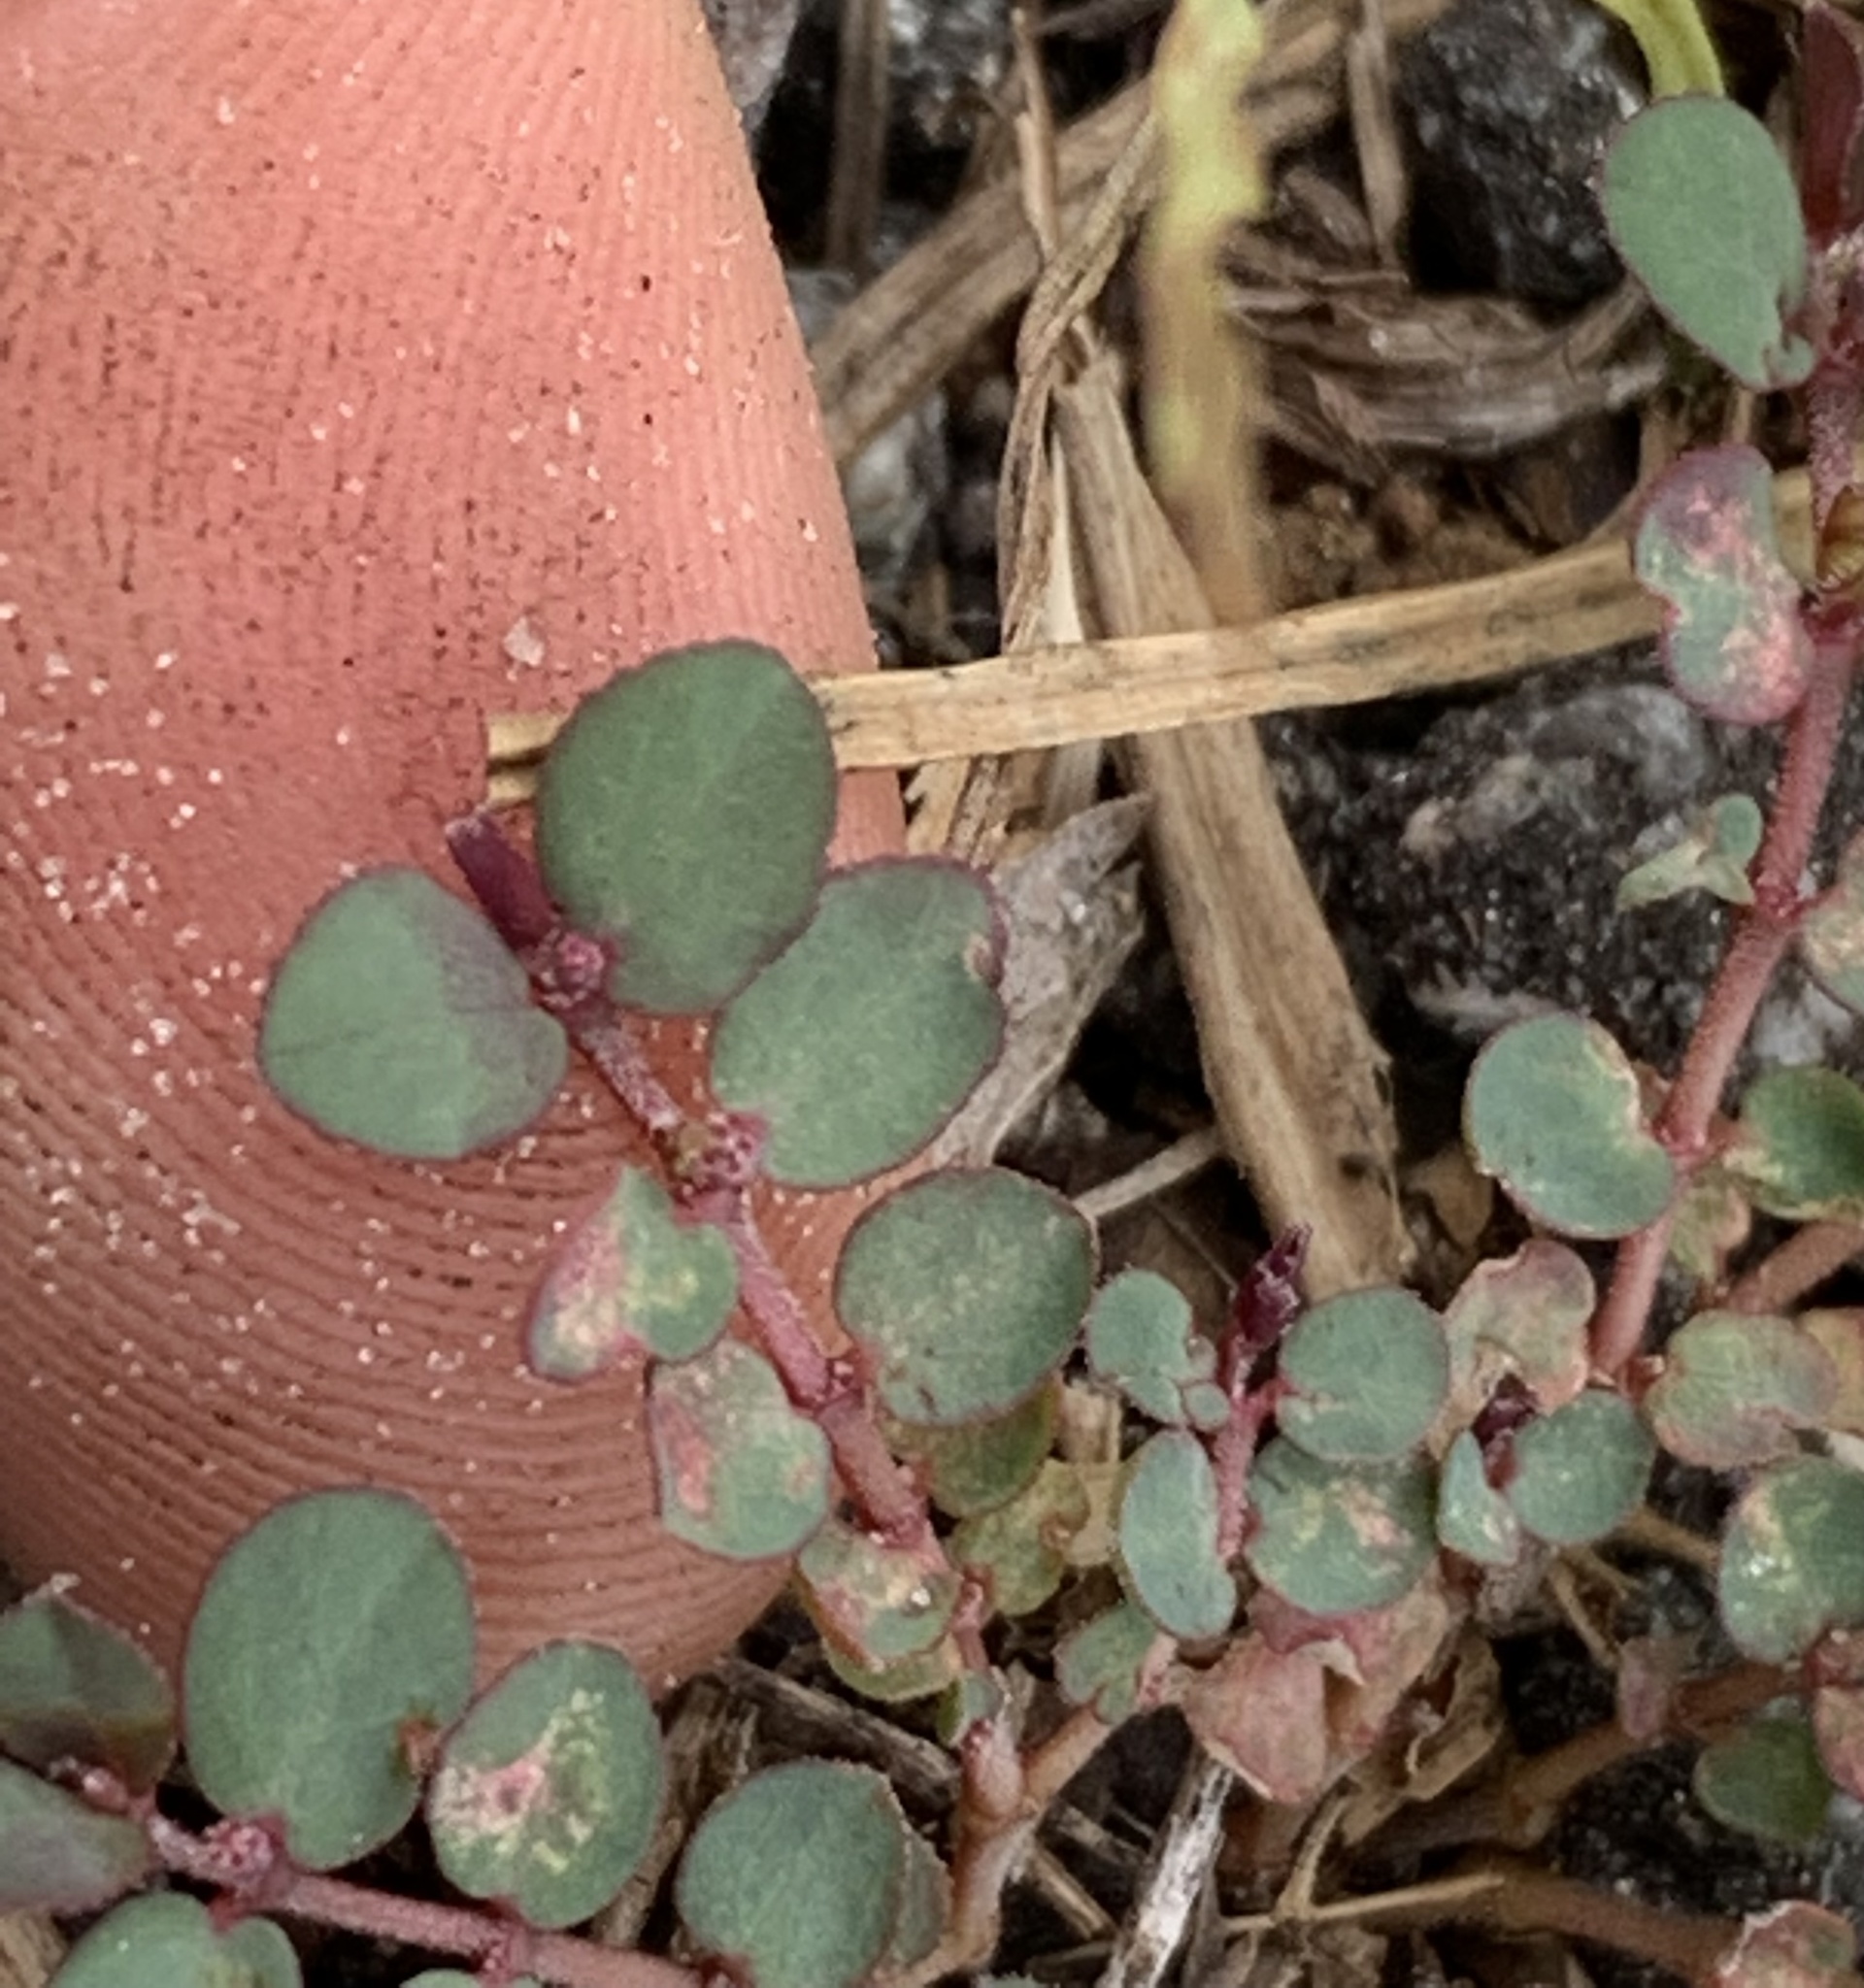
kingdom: Plantae
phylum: Tracheophyta
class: Magnoliopsida
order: Malpighiales
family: Euphorbiaceae
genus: Euphorbia
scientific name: Euphorbia prostrata
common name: Prostrate sandmat
